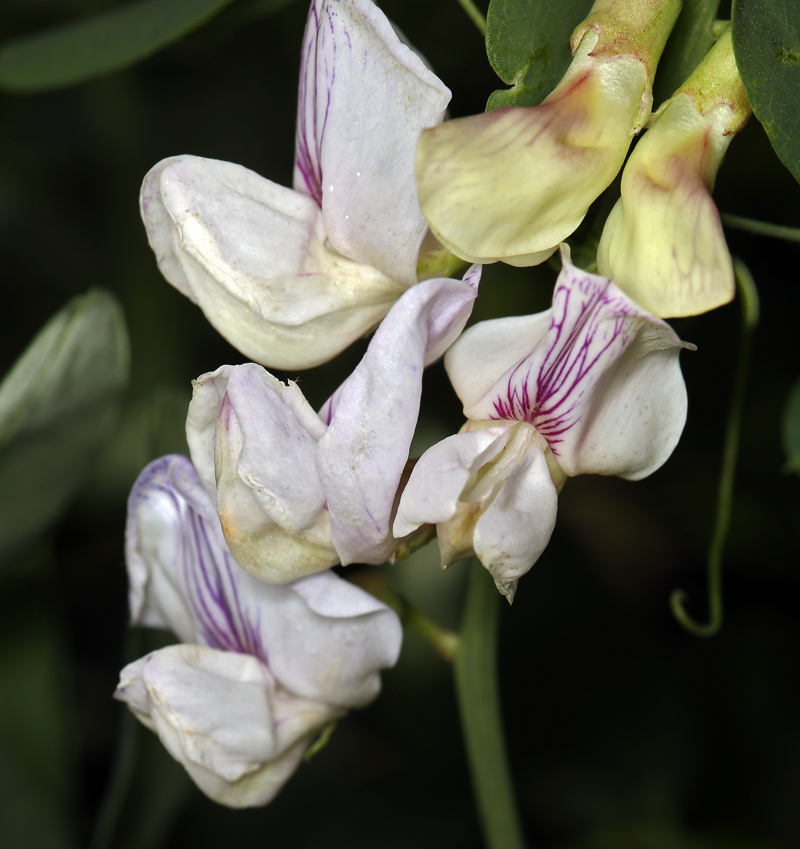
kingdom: Plantae
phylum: Tracheophyta
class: Magnoliopsida
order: Fabales
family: Fabaceae
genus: Lathyrus
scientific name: Lathyrus vestitus
